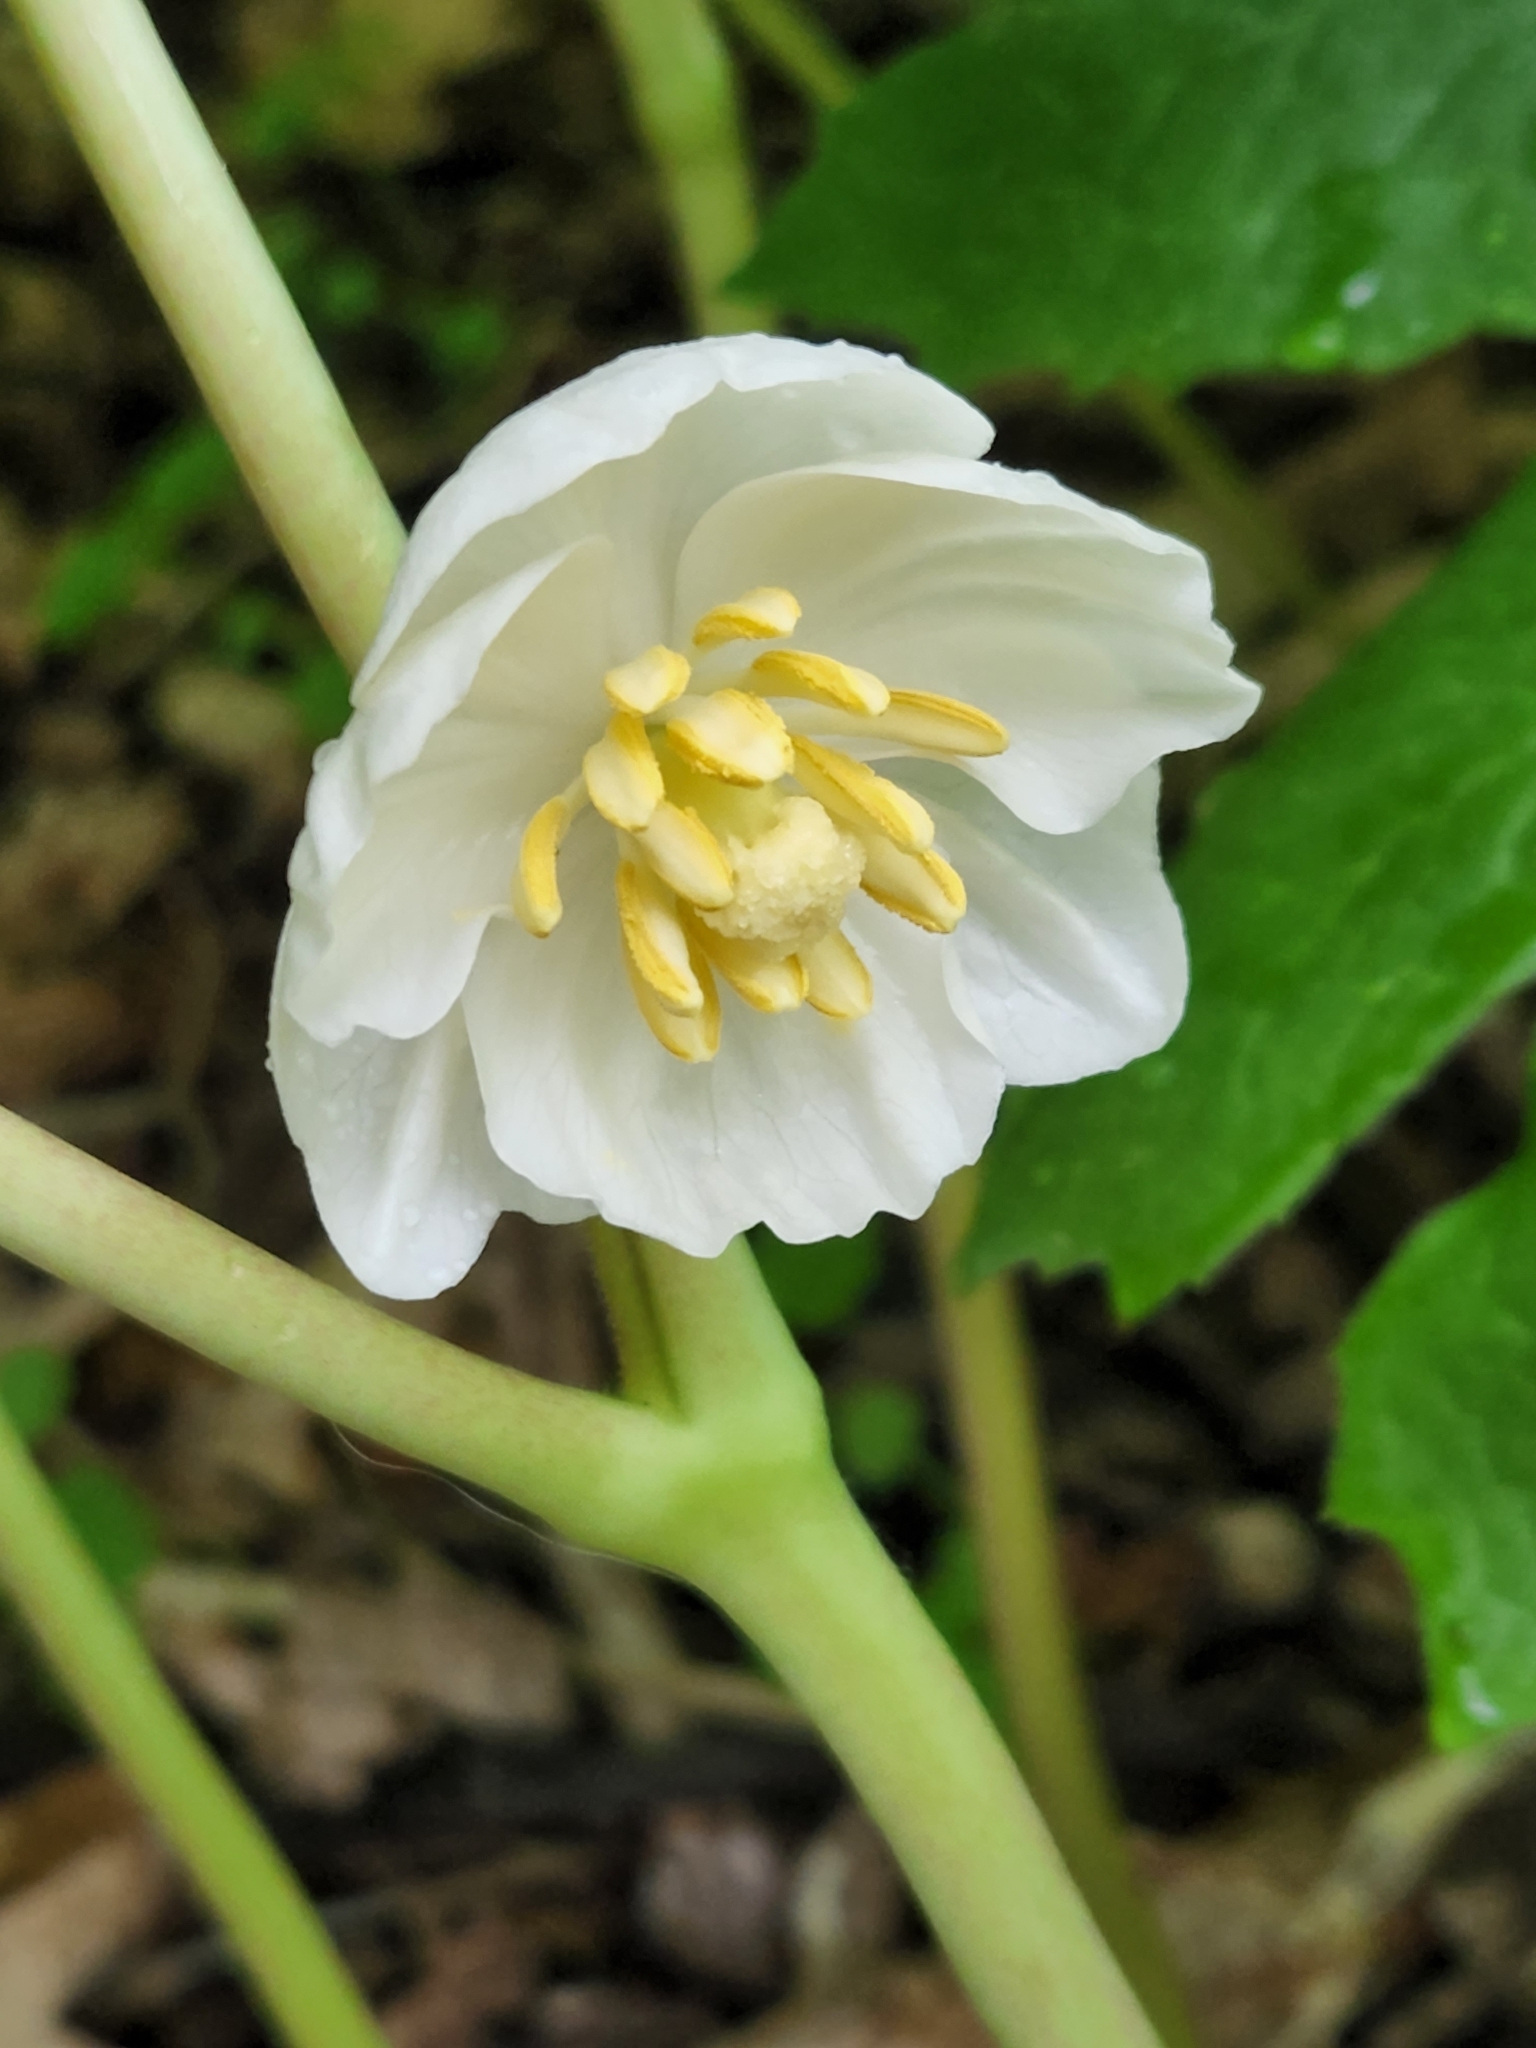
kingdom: Plantae
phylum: Tracheophyta
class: Magnoliopsida
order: Ranunculales
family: Berberidaceae
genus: Podophyllum
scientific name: Podophyllum peltatum
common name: Wild mandrake
